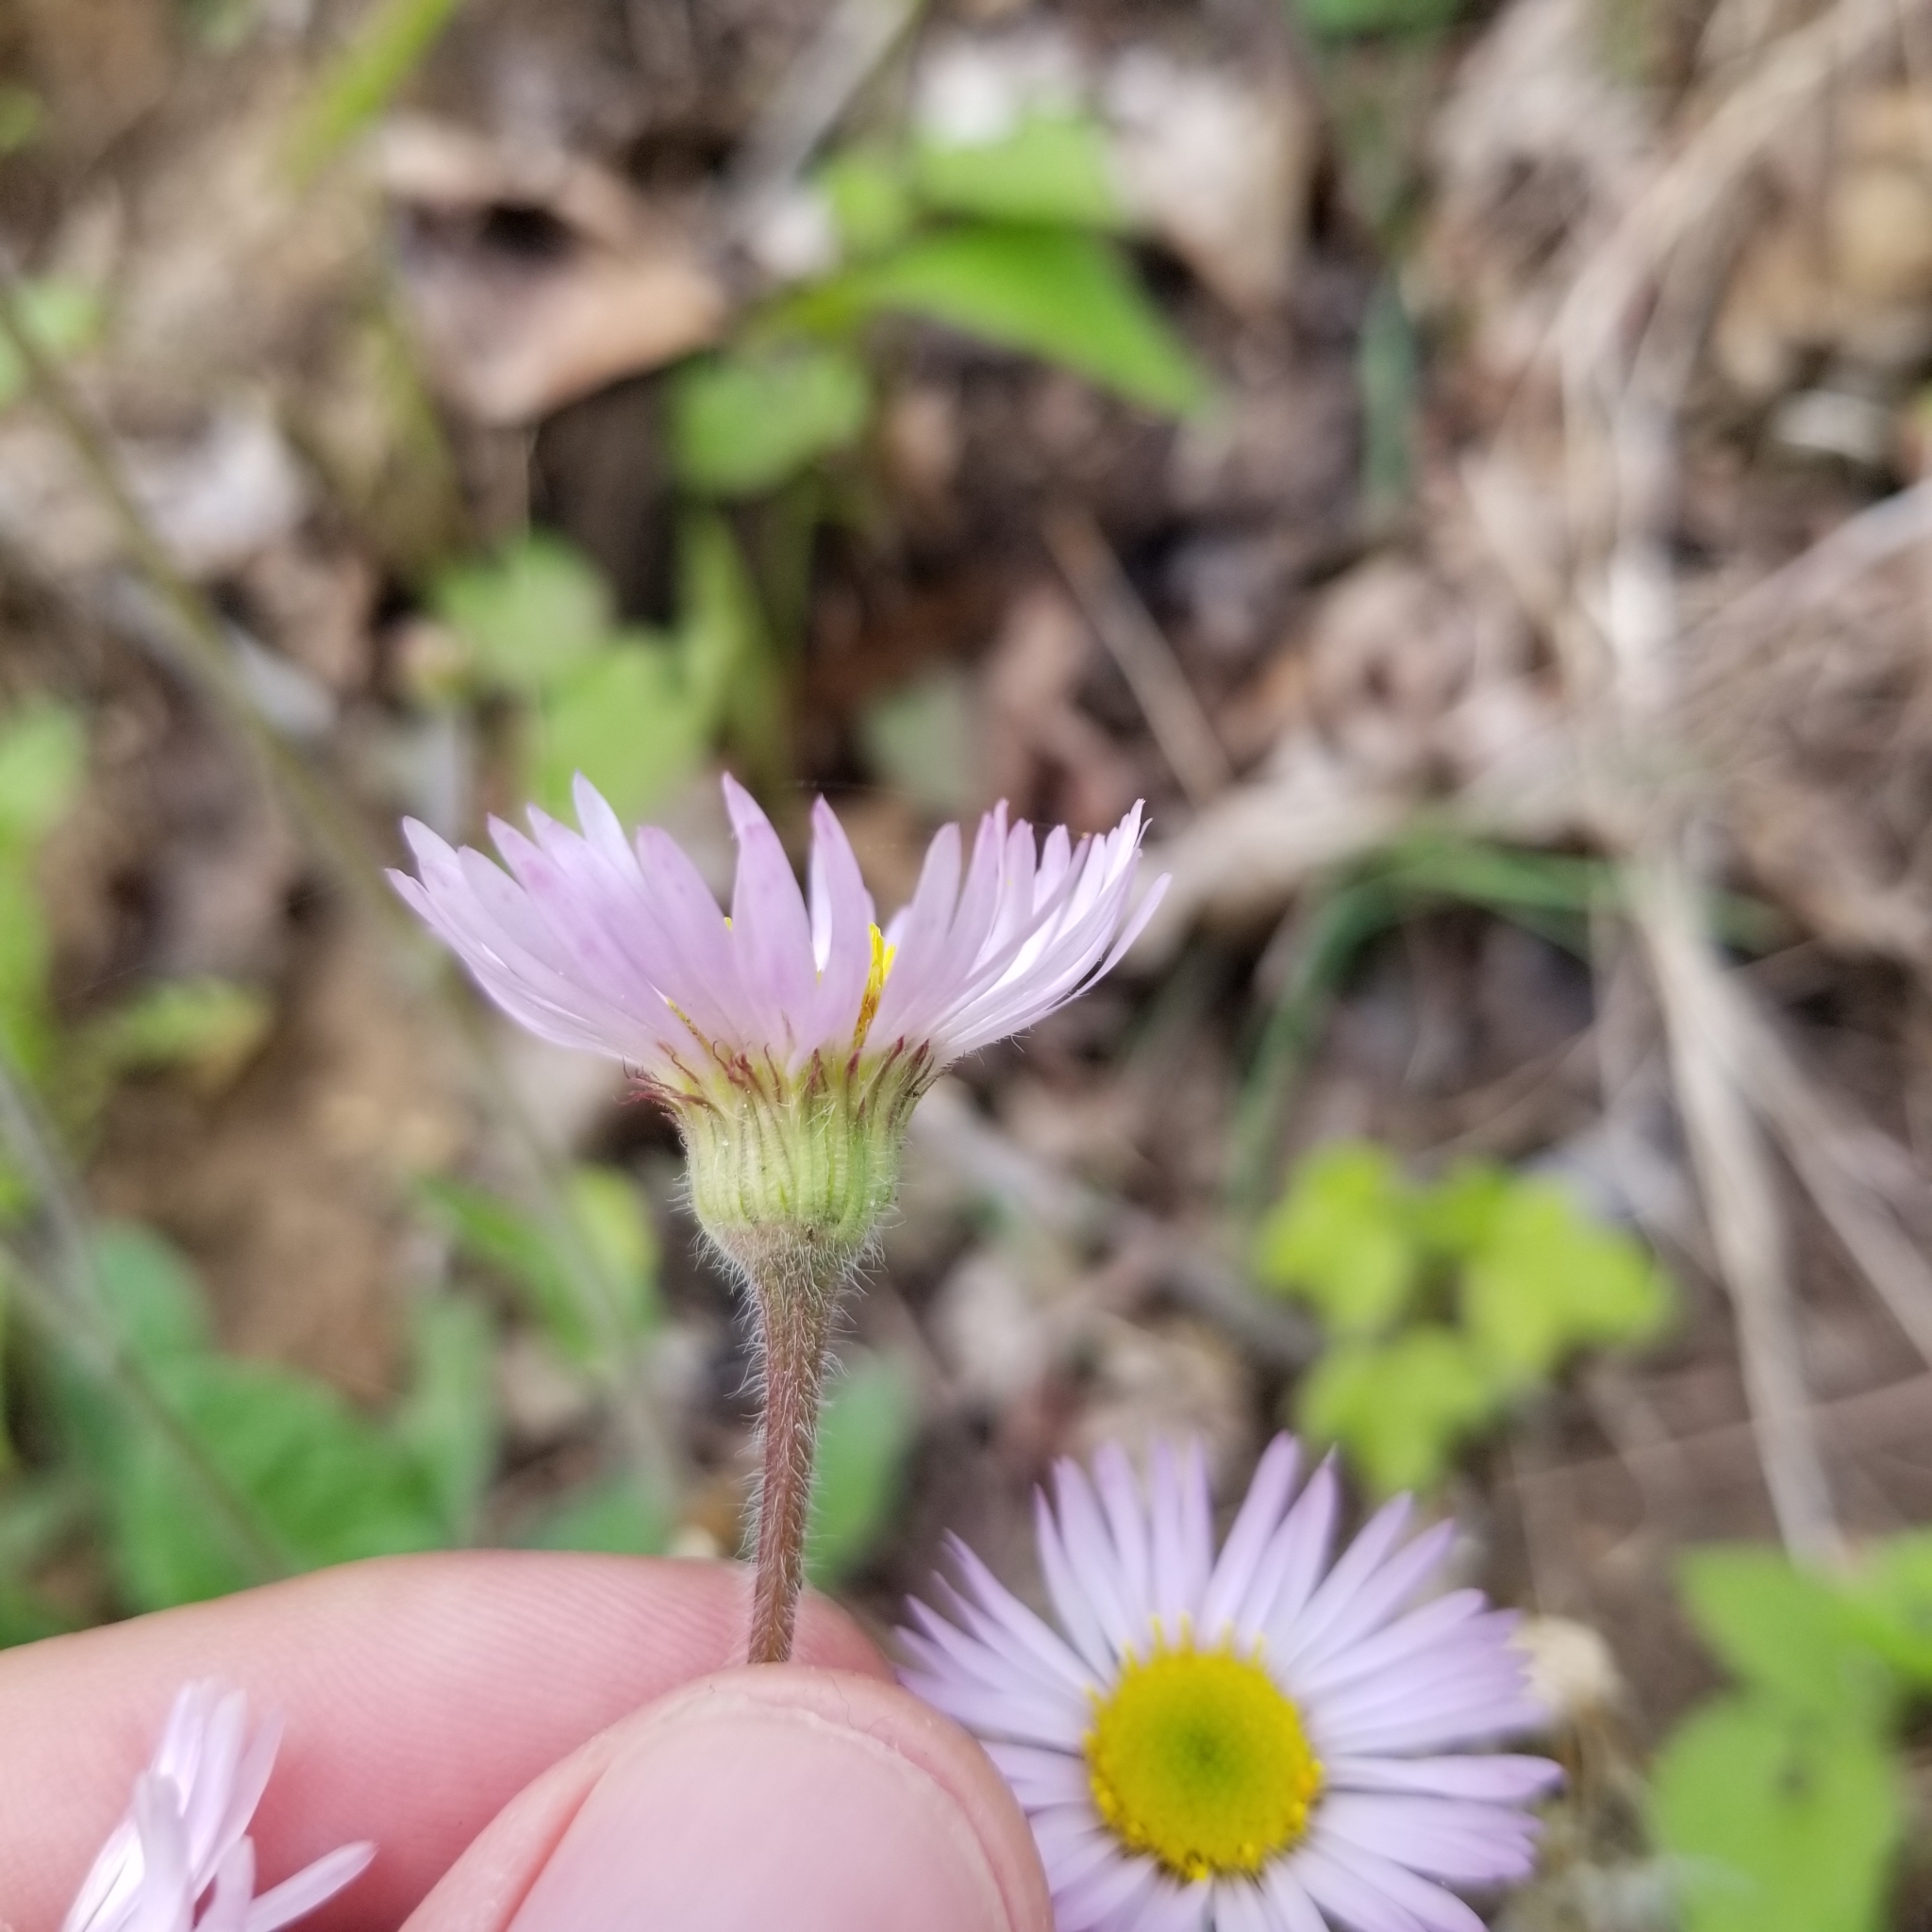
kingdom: Plantae
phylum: Tracheophyta
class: Magnoliopsida
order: Asterales
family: Asteraceae
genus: Erigeron
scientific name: Erigeron pulchellus
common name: Hairy fleabane
